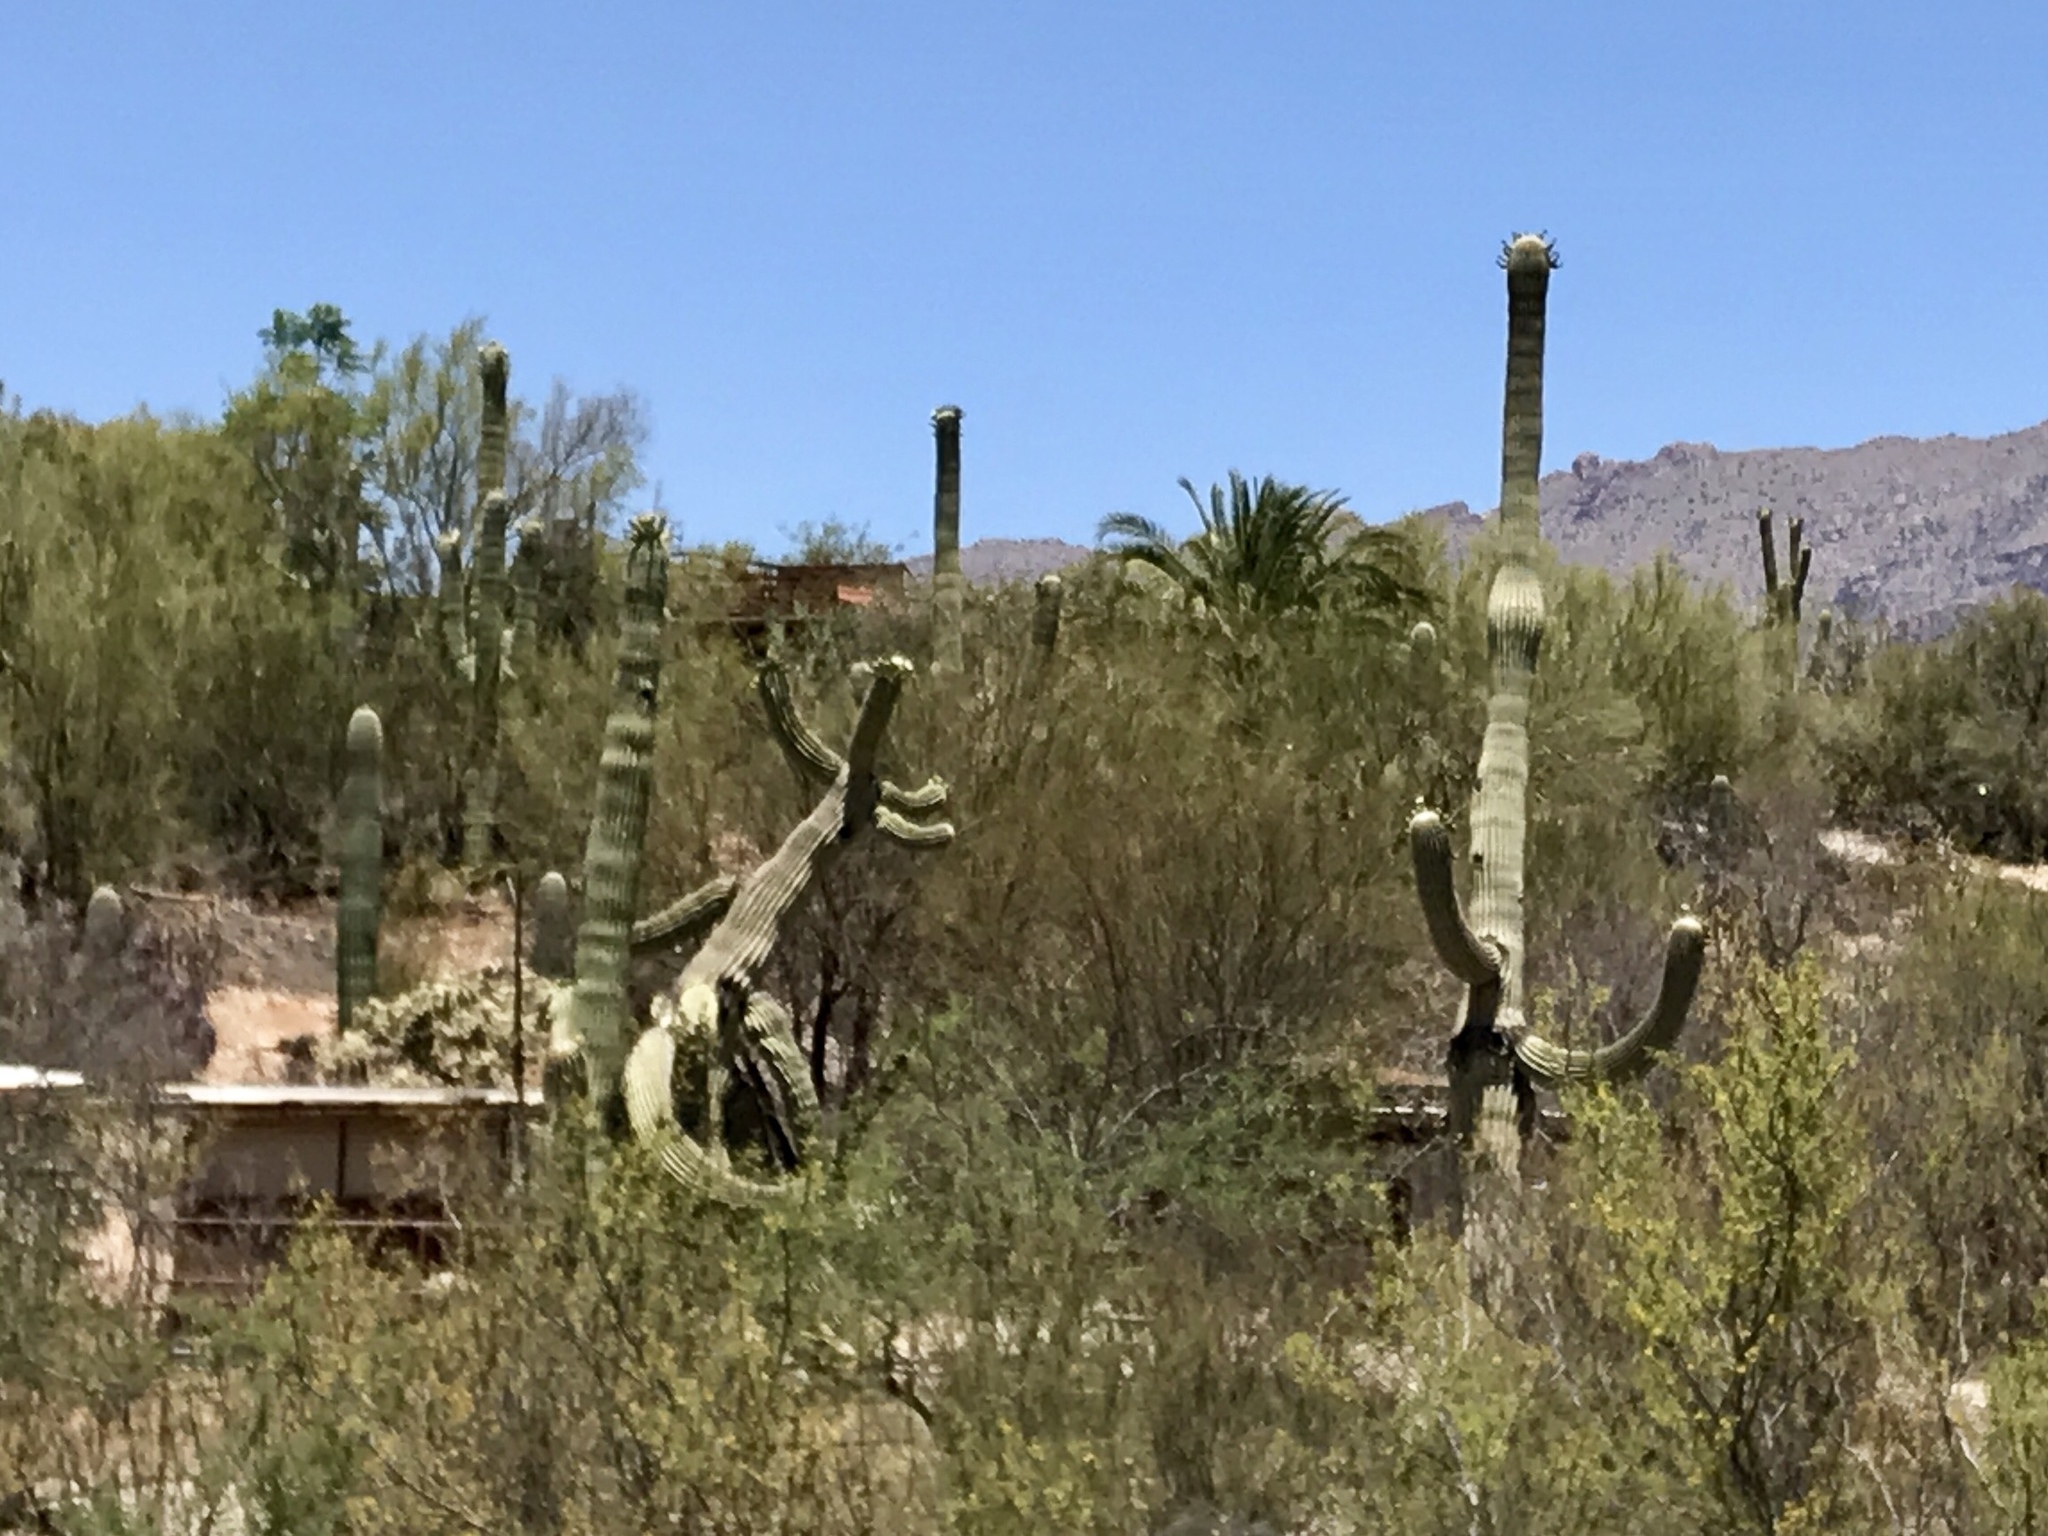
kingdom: Plantae
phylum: Tracheophyta
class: Magnoliopsida
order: Caryophyllales
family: Cactaceae
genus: Carnegiea
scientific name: Carnegiea gigantea
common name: Saguaro
